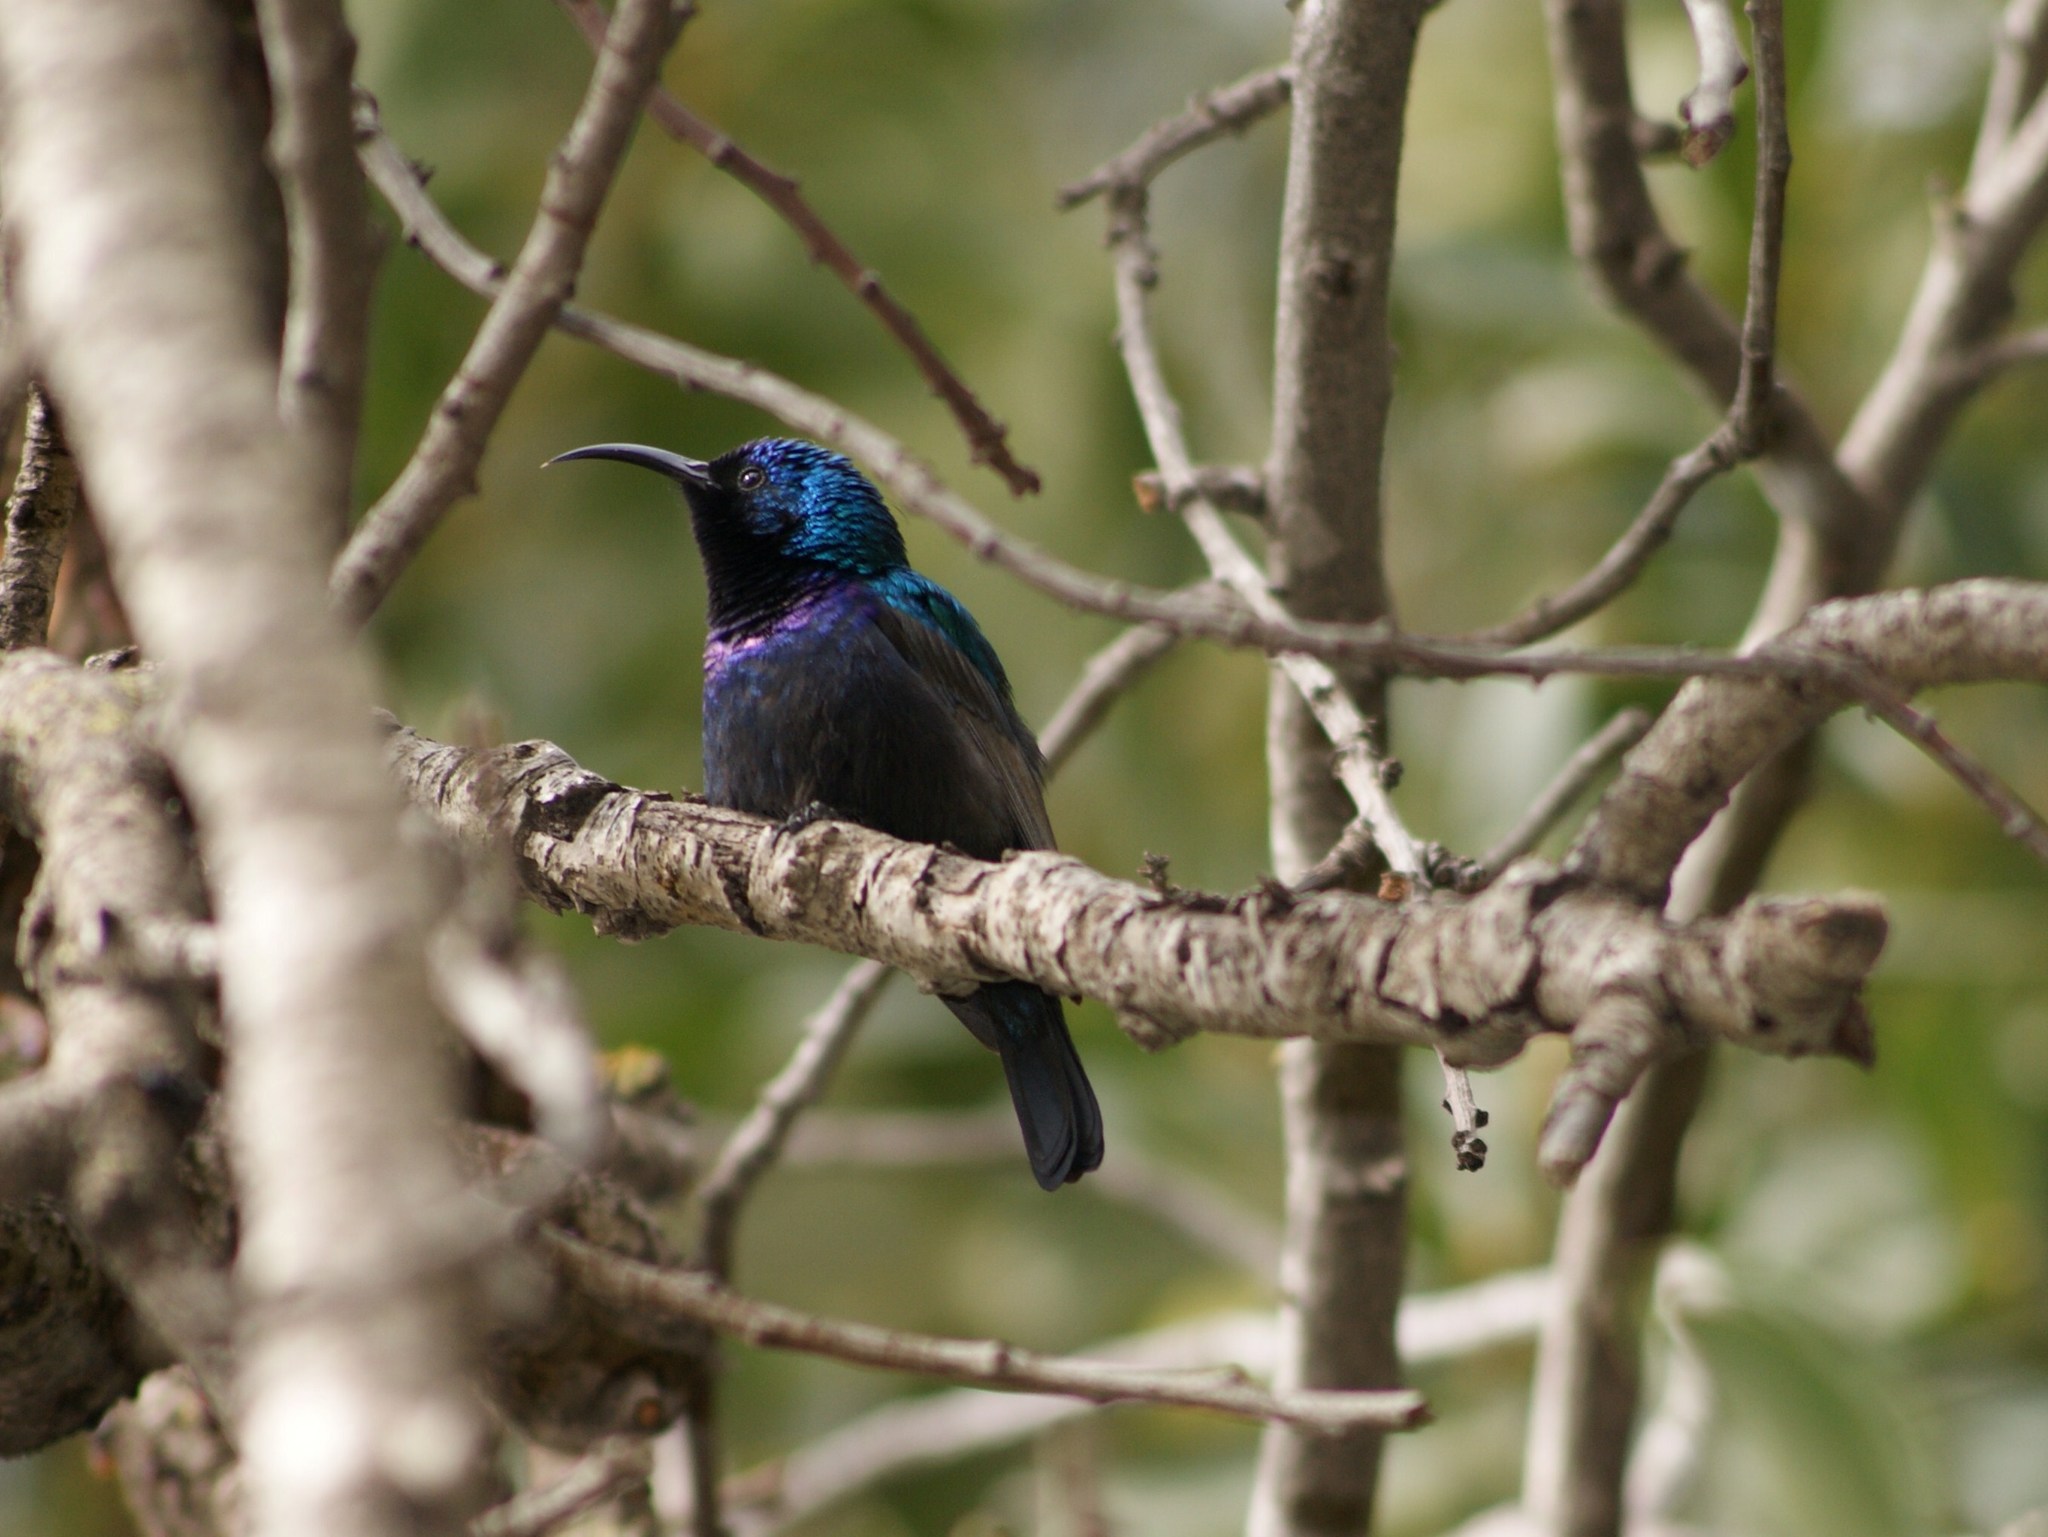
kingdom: Animalia
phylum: Chordata
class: Aves
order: Passeriformes
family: Nectariniidae
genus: Cinnyris
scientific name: Cinnyris osea
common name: Palestine sunbird
